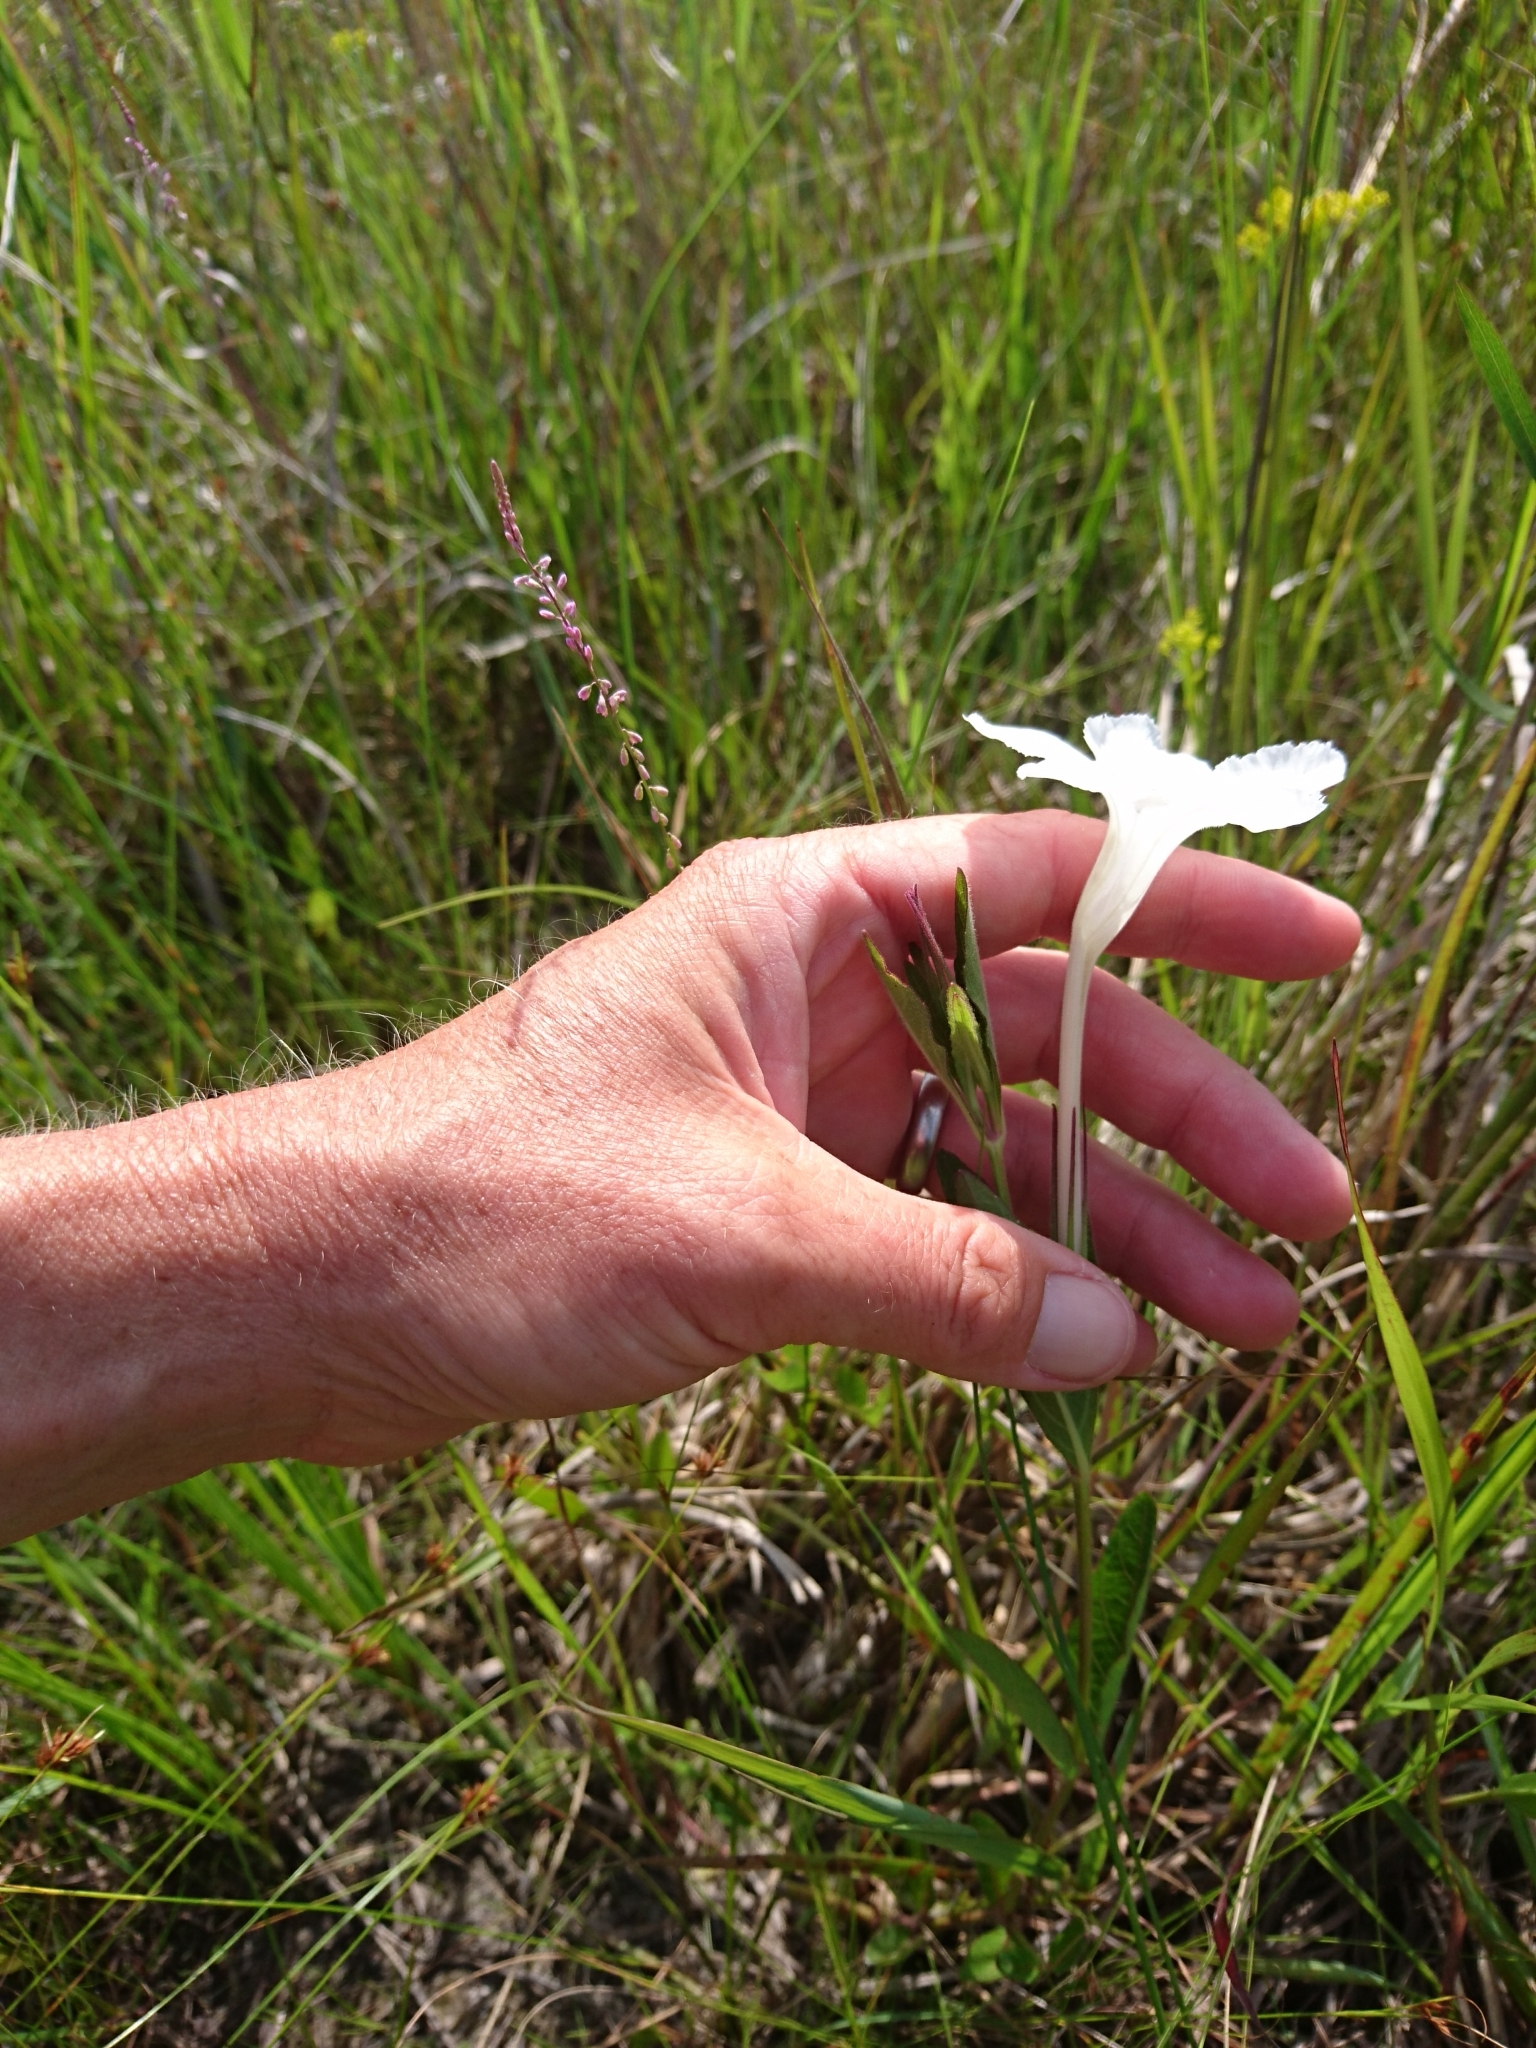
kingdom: Plantae
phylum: Tracheophyta
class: Magnoliopsida
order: Lamiales
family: Acanthaceae
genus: Ruellia
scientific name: Ruellia noctiflora
